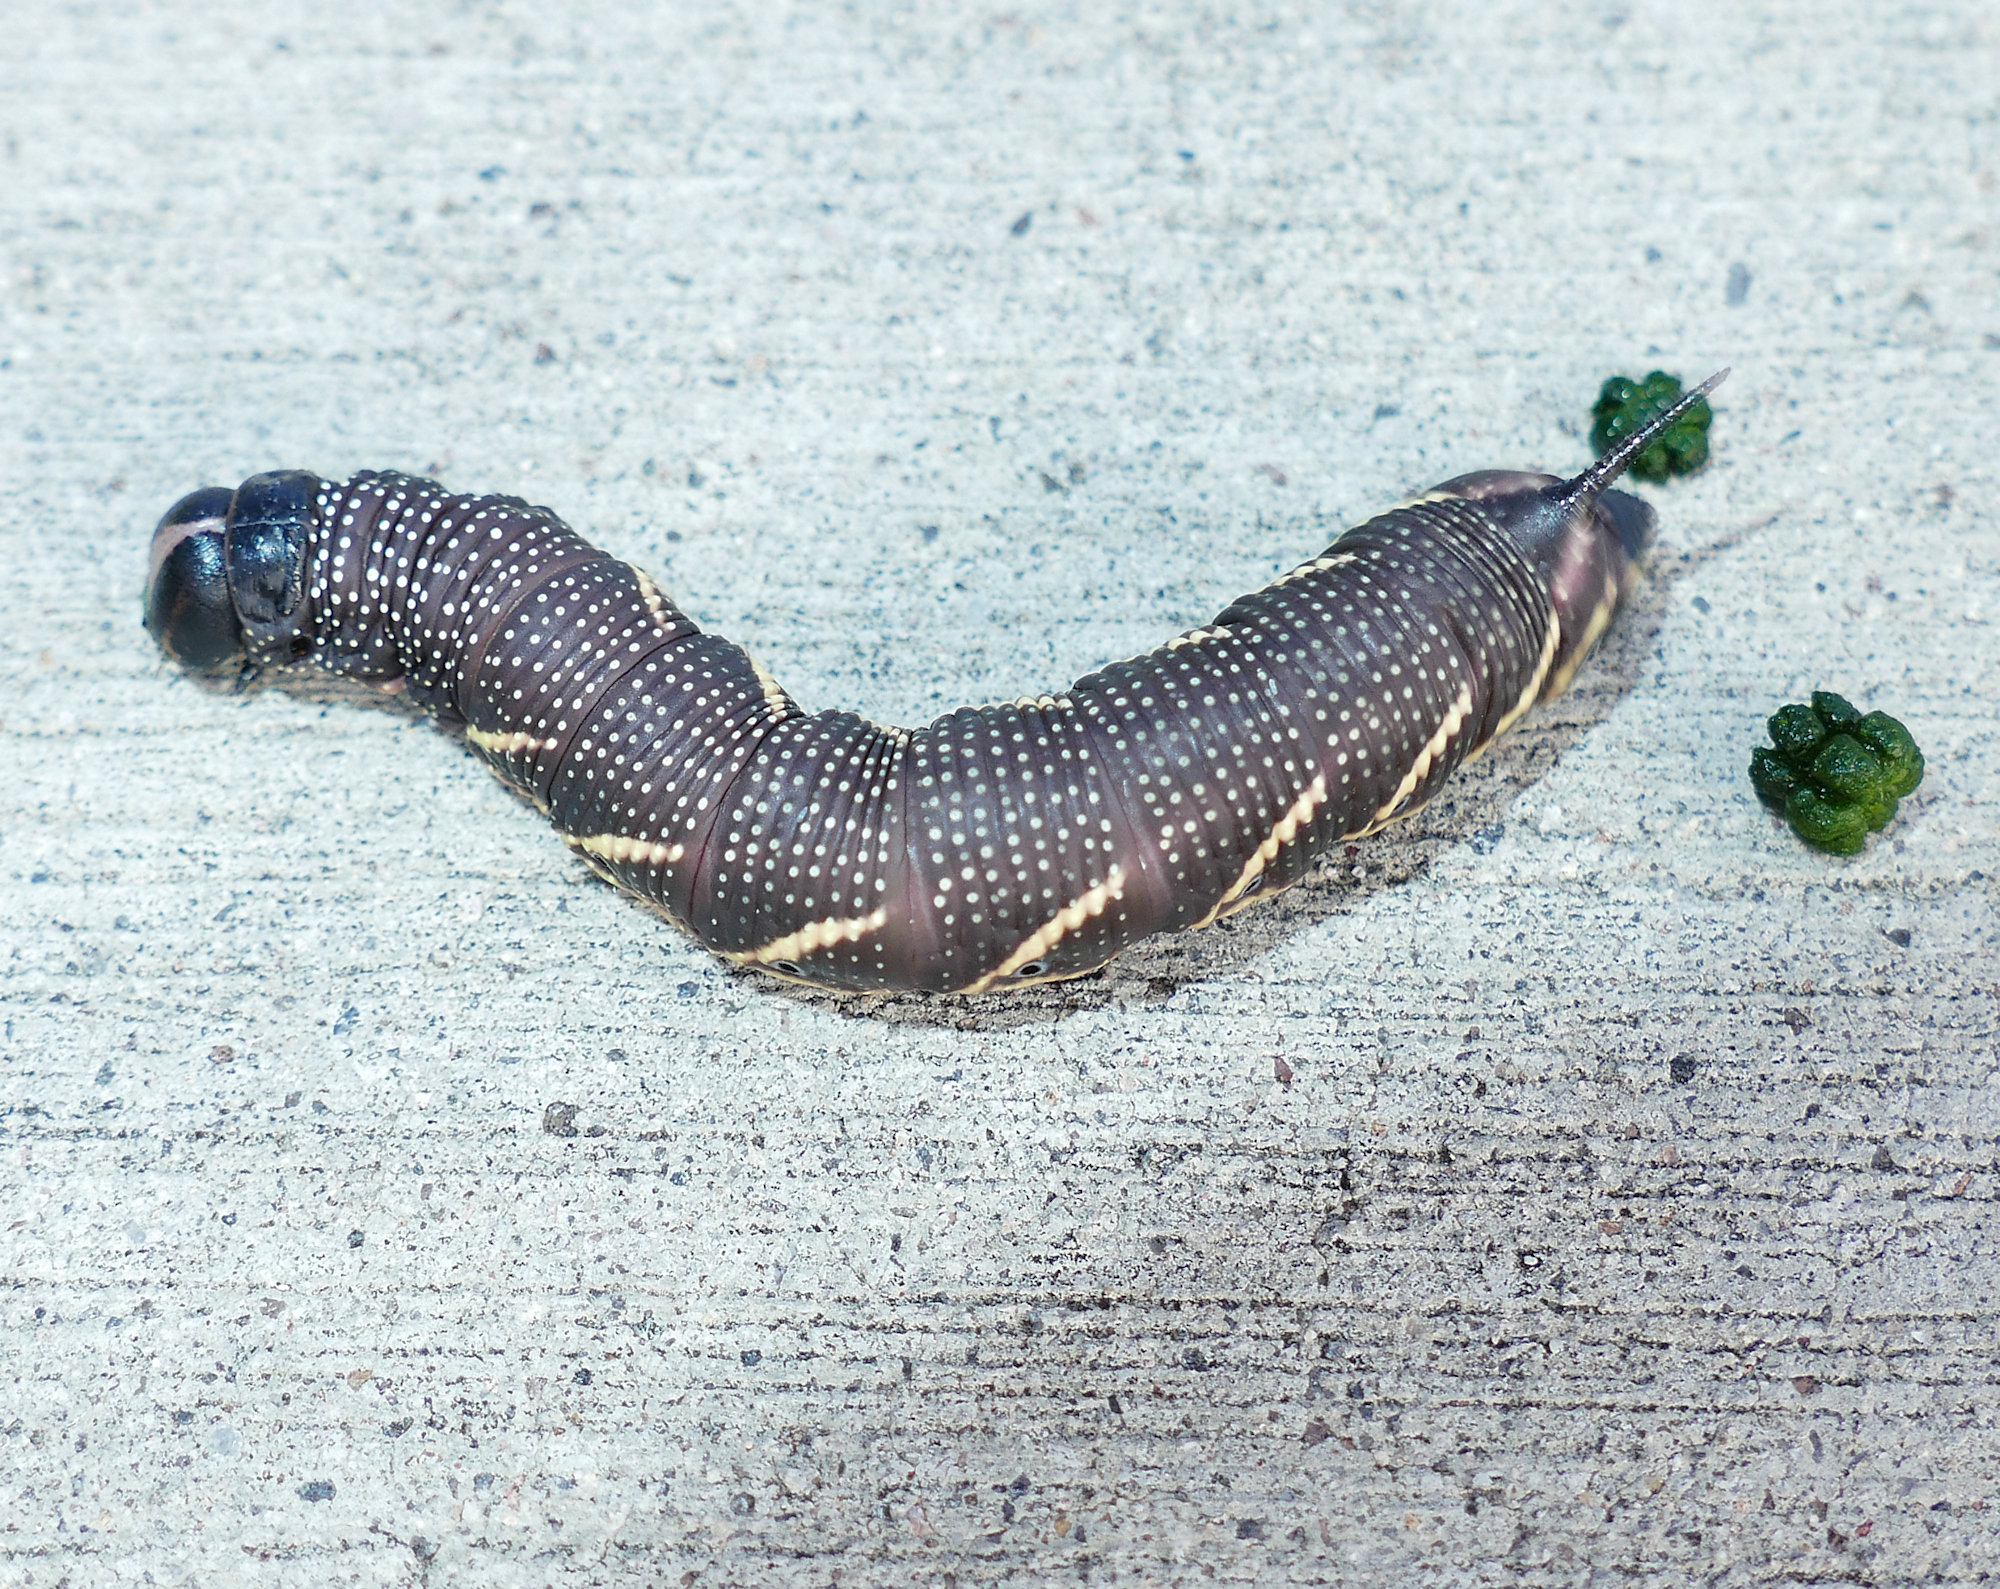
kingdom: Animalia
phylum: Arthropoda
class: Insecta
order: Lepidoptera
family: Sphingidae
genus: Manduca
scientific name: Manduca quinquemaculatus
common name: Five-spotted hawk-moth
